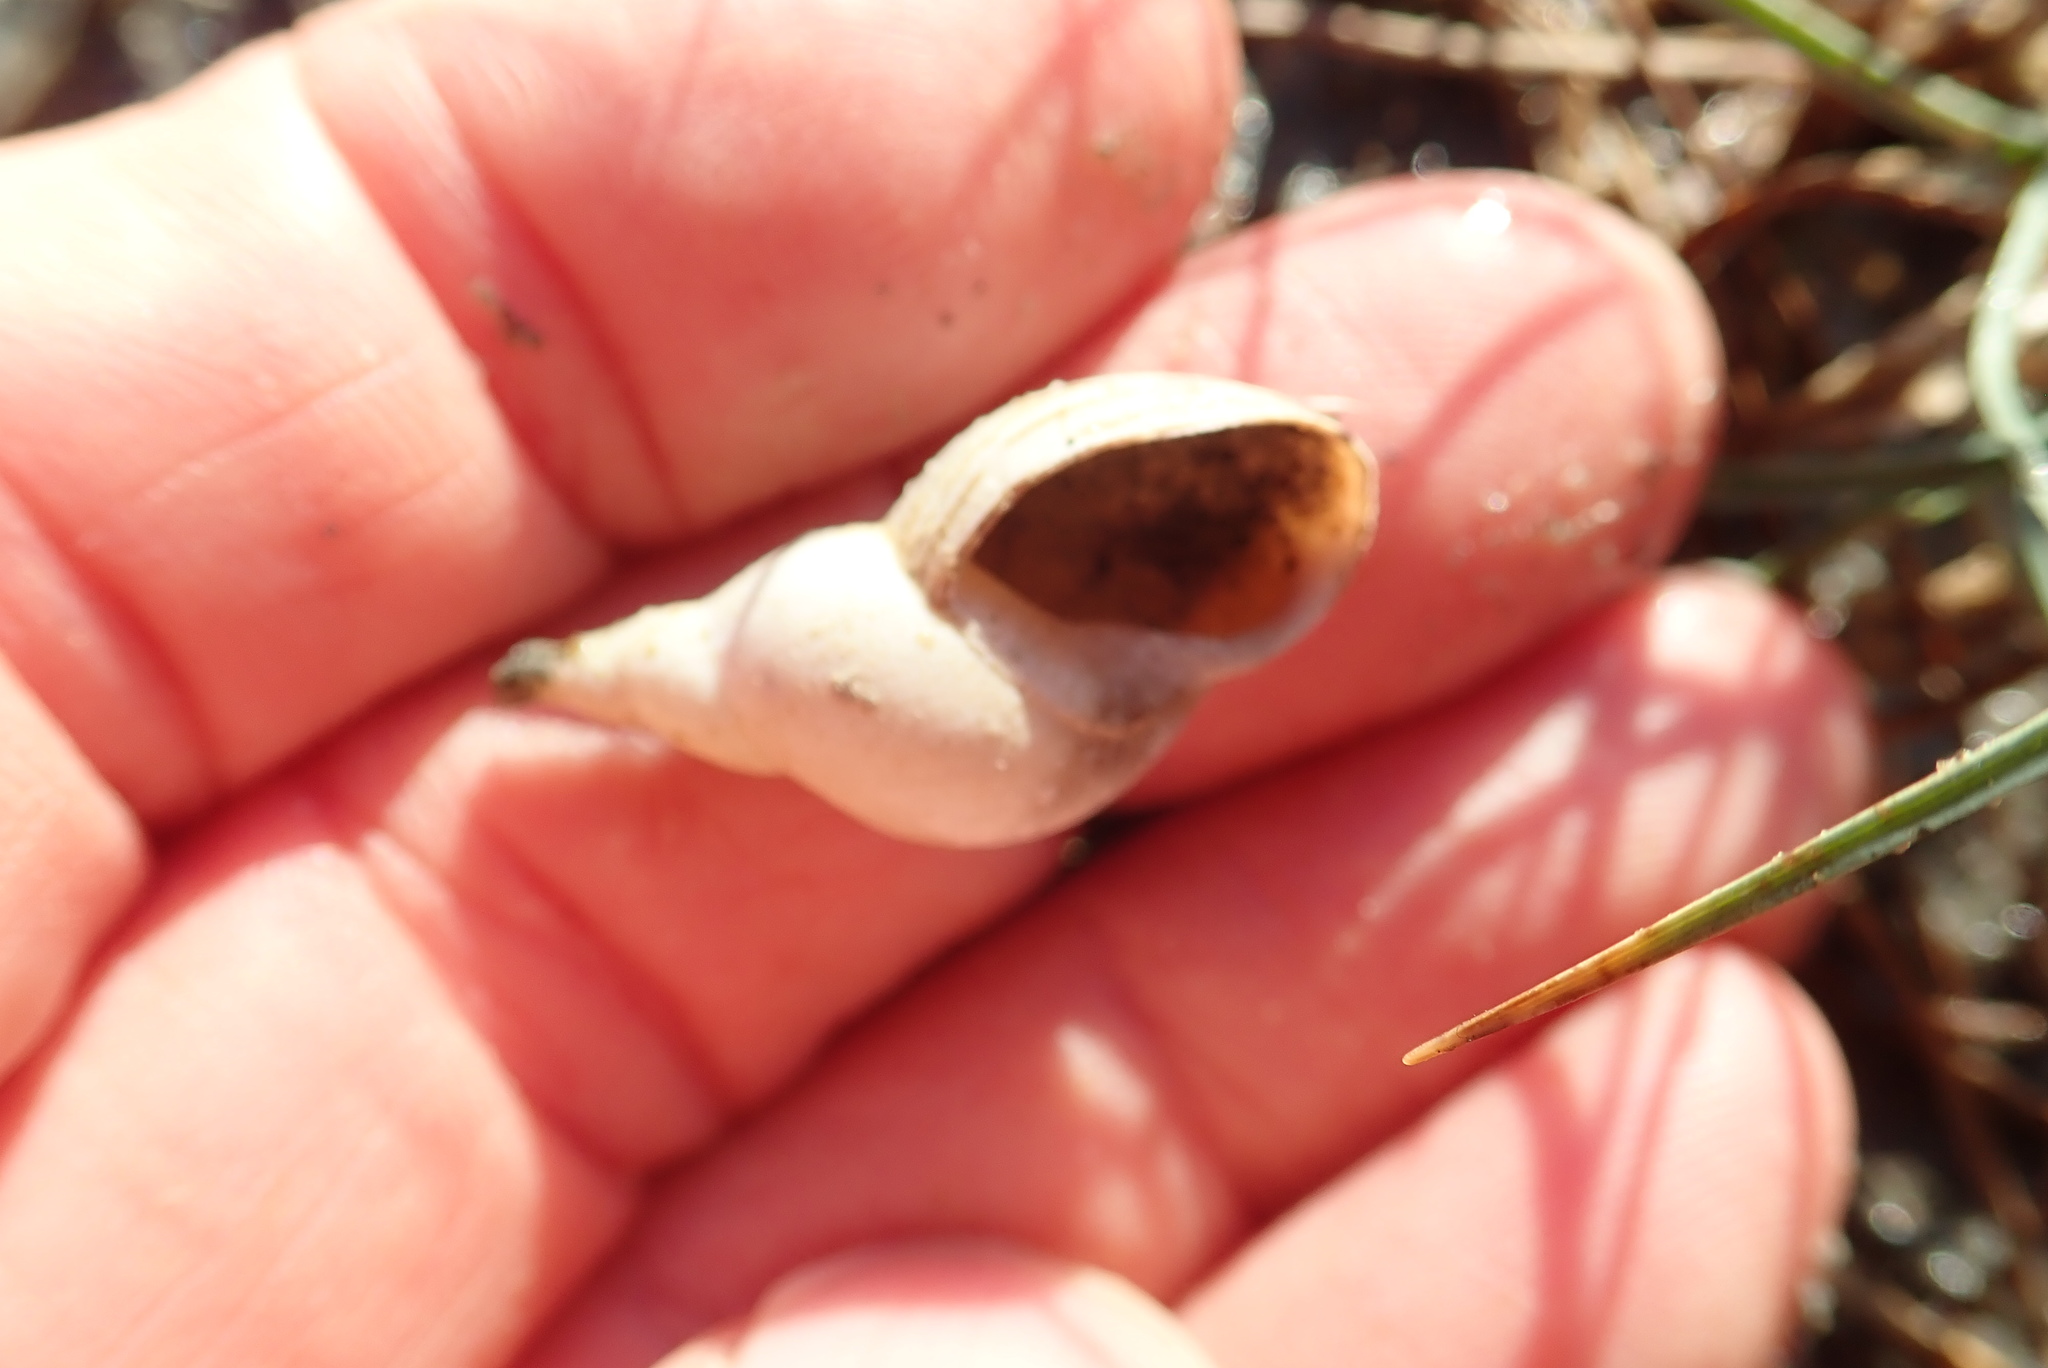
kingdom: Animalia
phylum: Mollusca
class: Gastropoda
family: Lymnaeidae
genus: Lymnaea
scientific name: Lymnaea stagnalis
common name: Great pond snail
